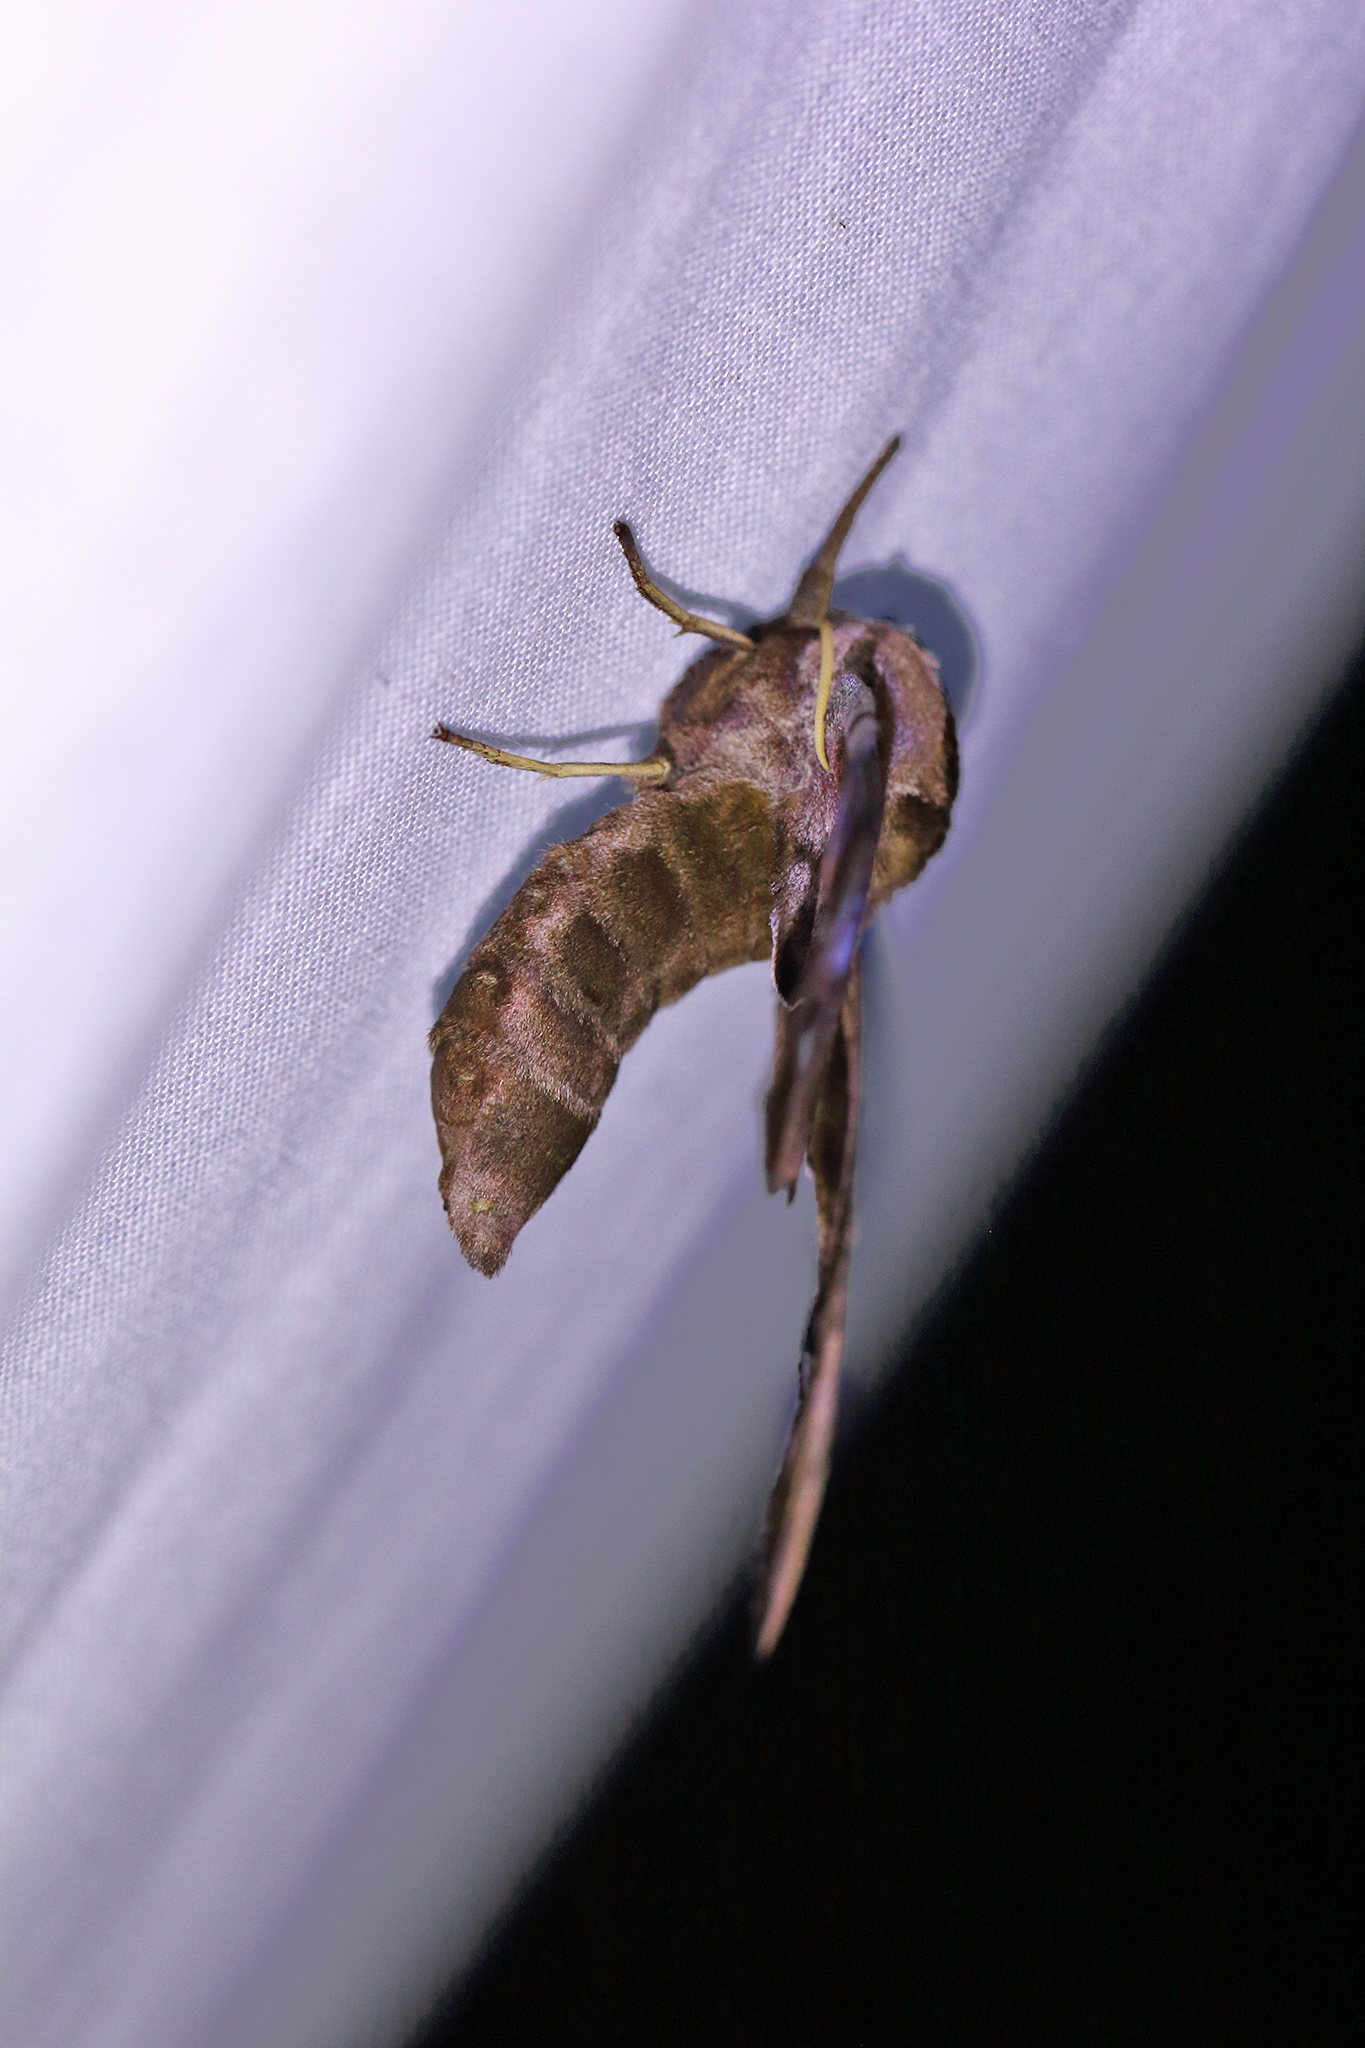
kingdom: Animalia
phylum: Arthropoda
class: Insecta
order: Lepidoptera
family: Sphingidae
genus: Smerinthus
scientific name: Smerinthus ocellata
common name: Eyed hawk-moth
